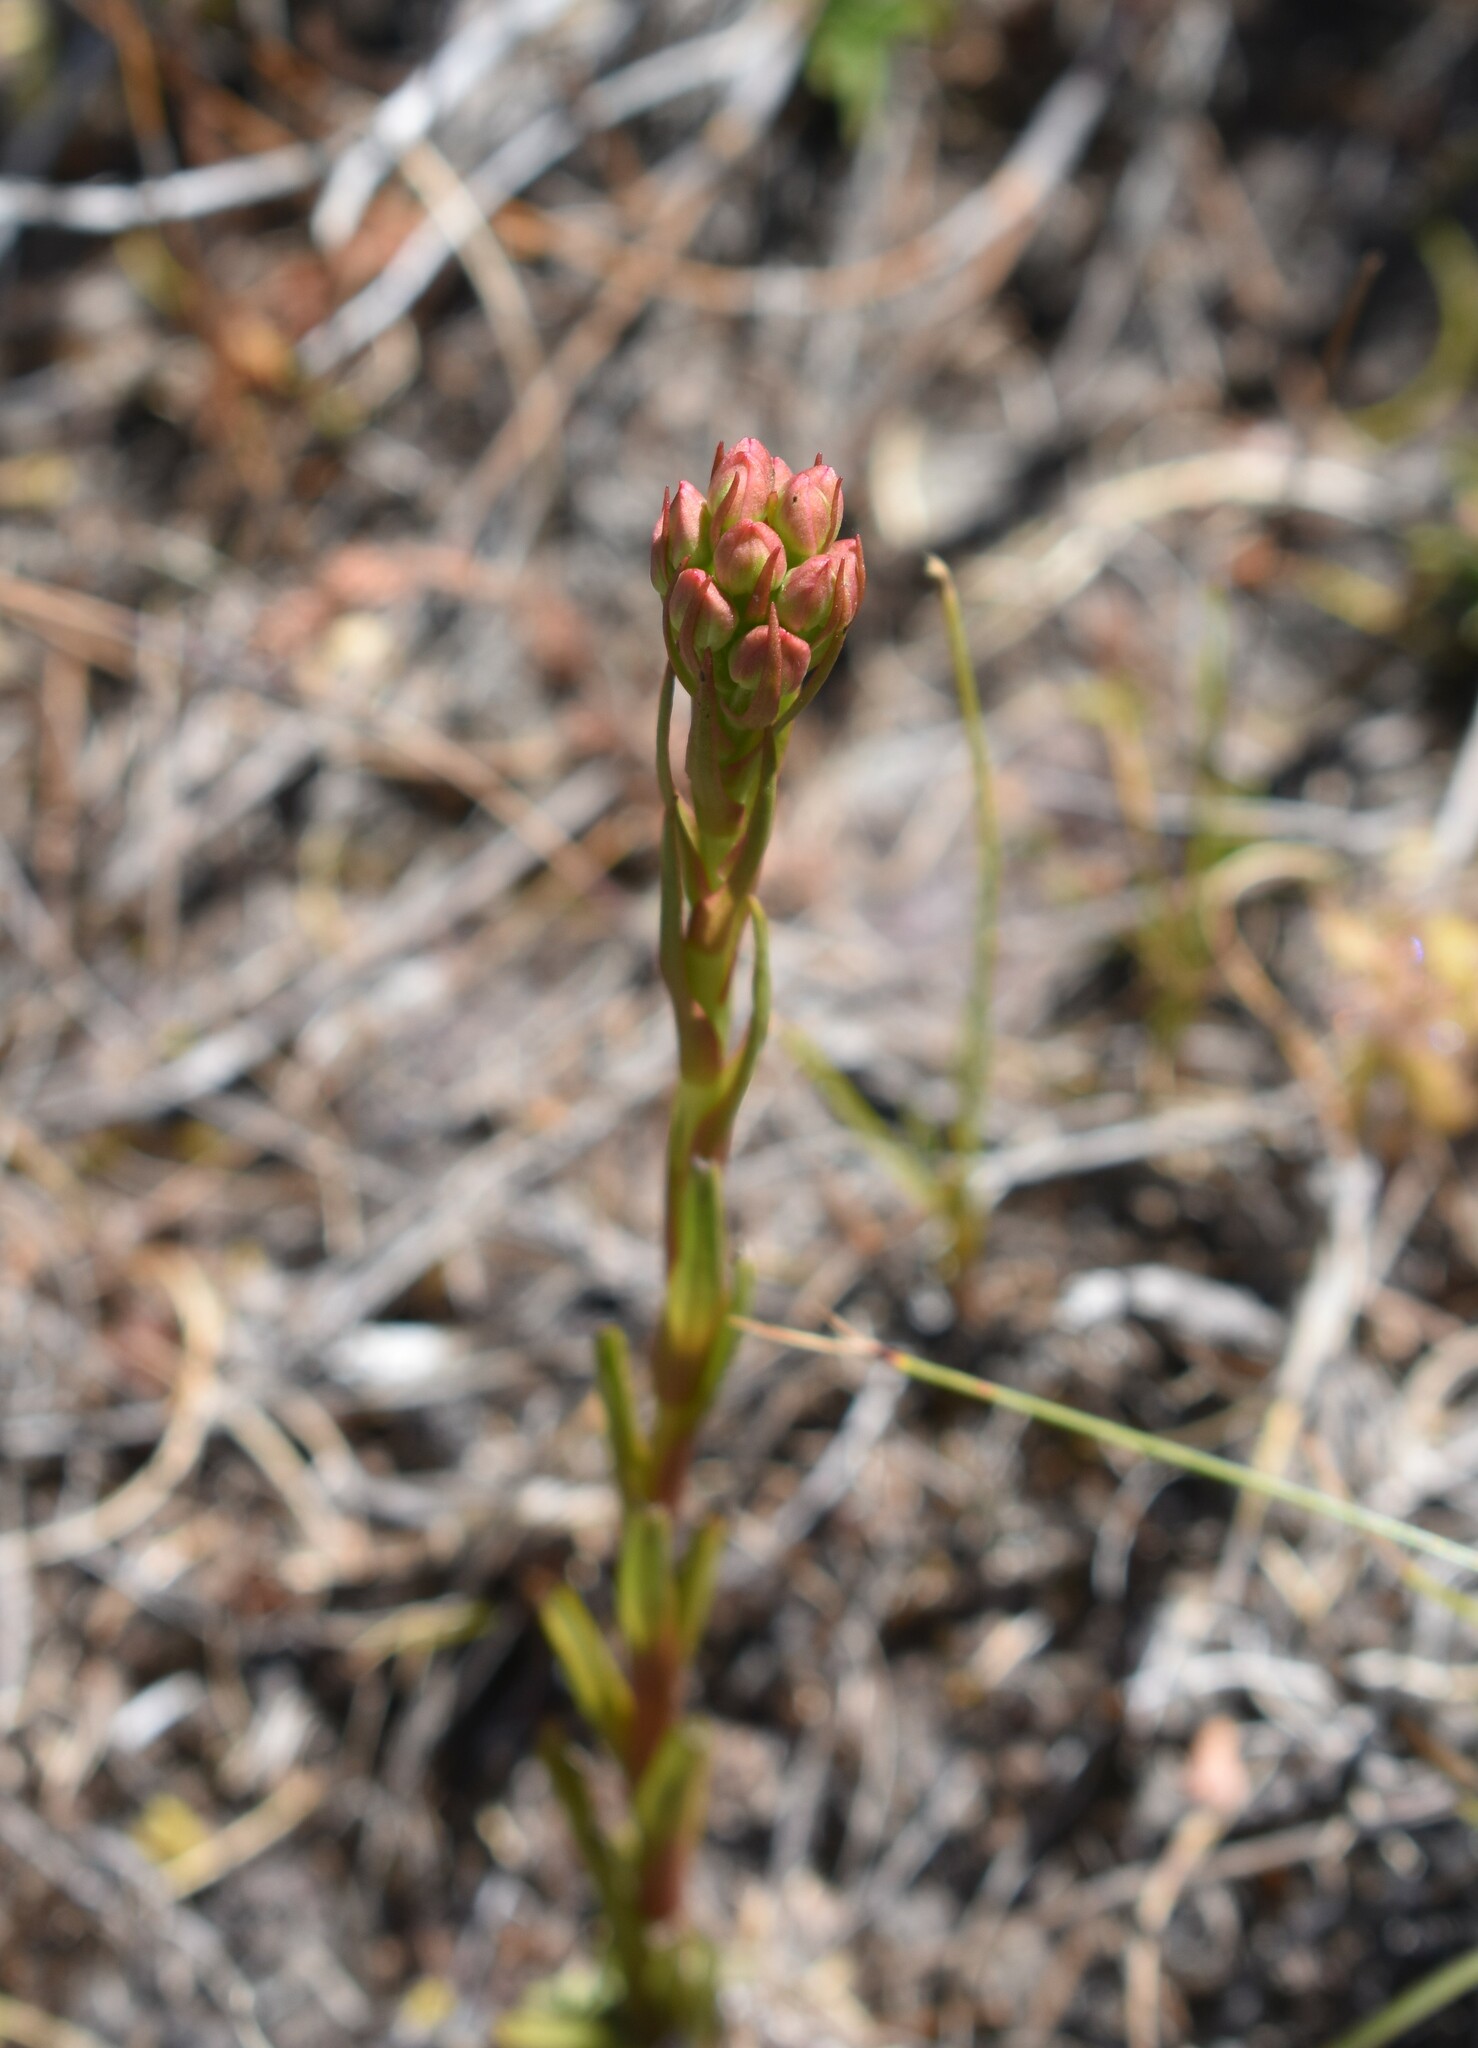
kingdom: Plantae
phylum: Tracheophyta
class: Liliopsida
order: Asparagales
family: Orchidaceae
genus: Ceratandra
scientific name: Ceratandra globosa
